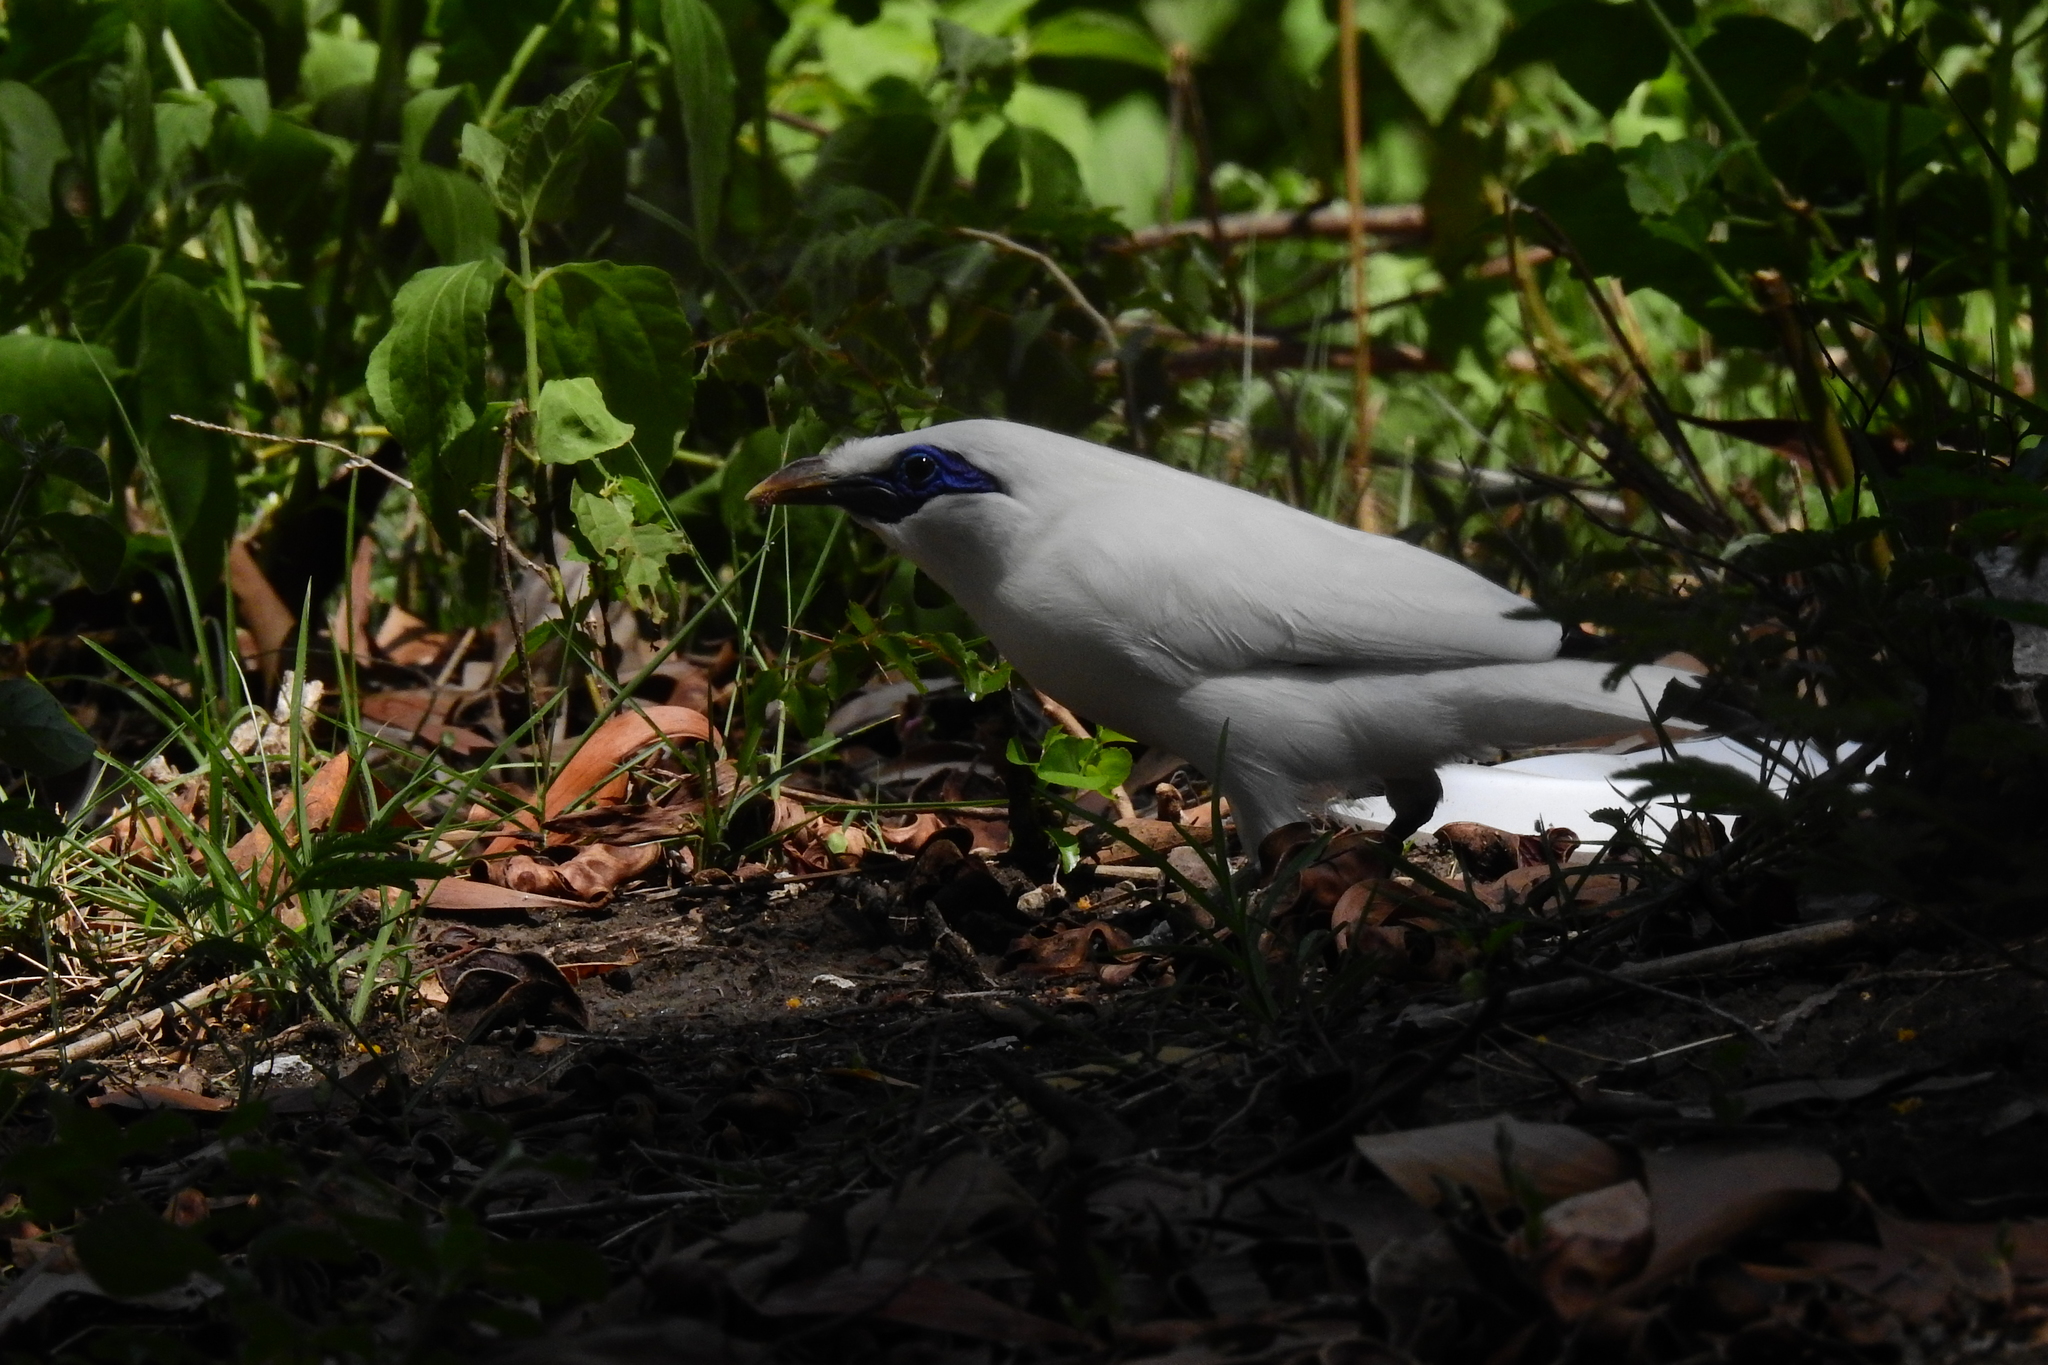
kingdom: Animalia
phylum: Chordata
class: Aves
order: Passeriformes
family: Sturnidae
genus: Leucopsar
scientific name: Leucopsar rothschildi
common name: Bali myna
